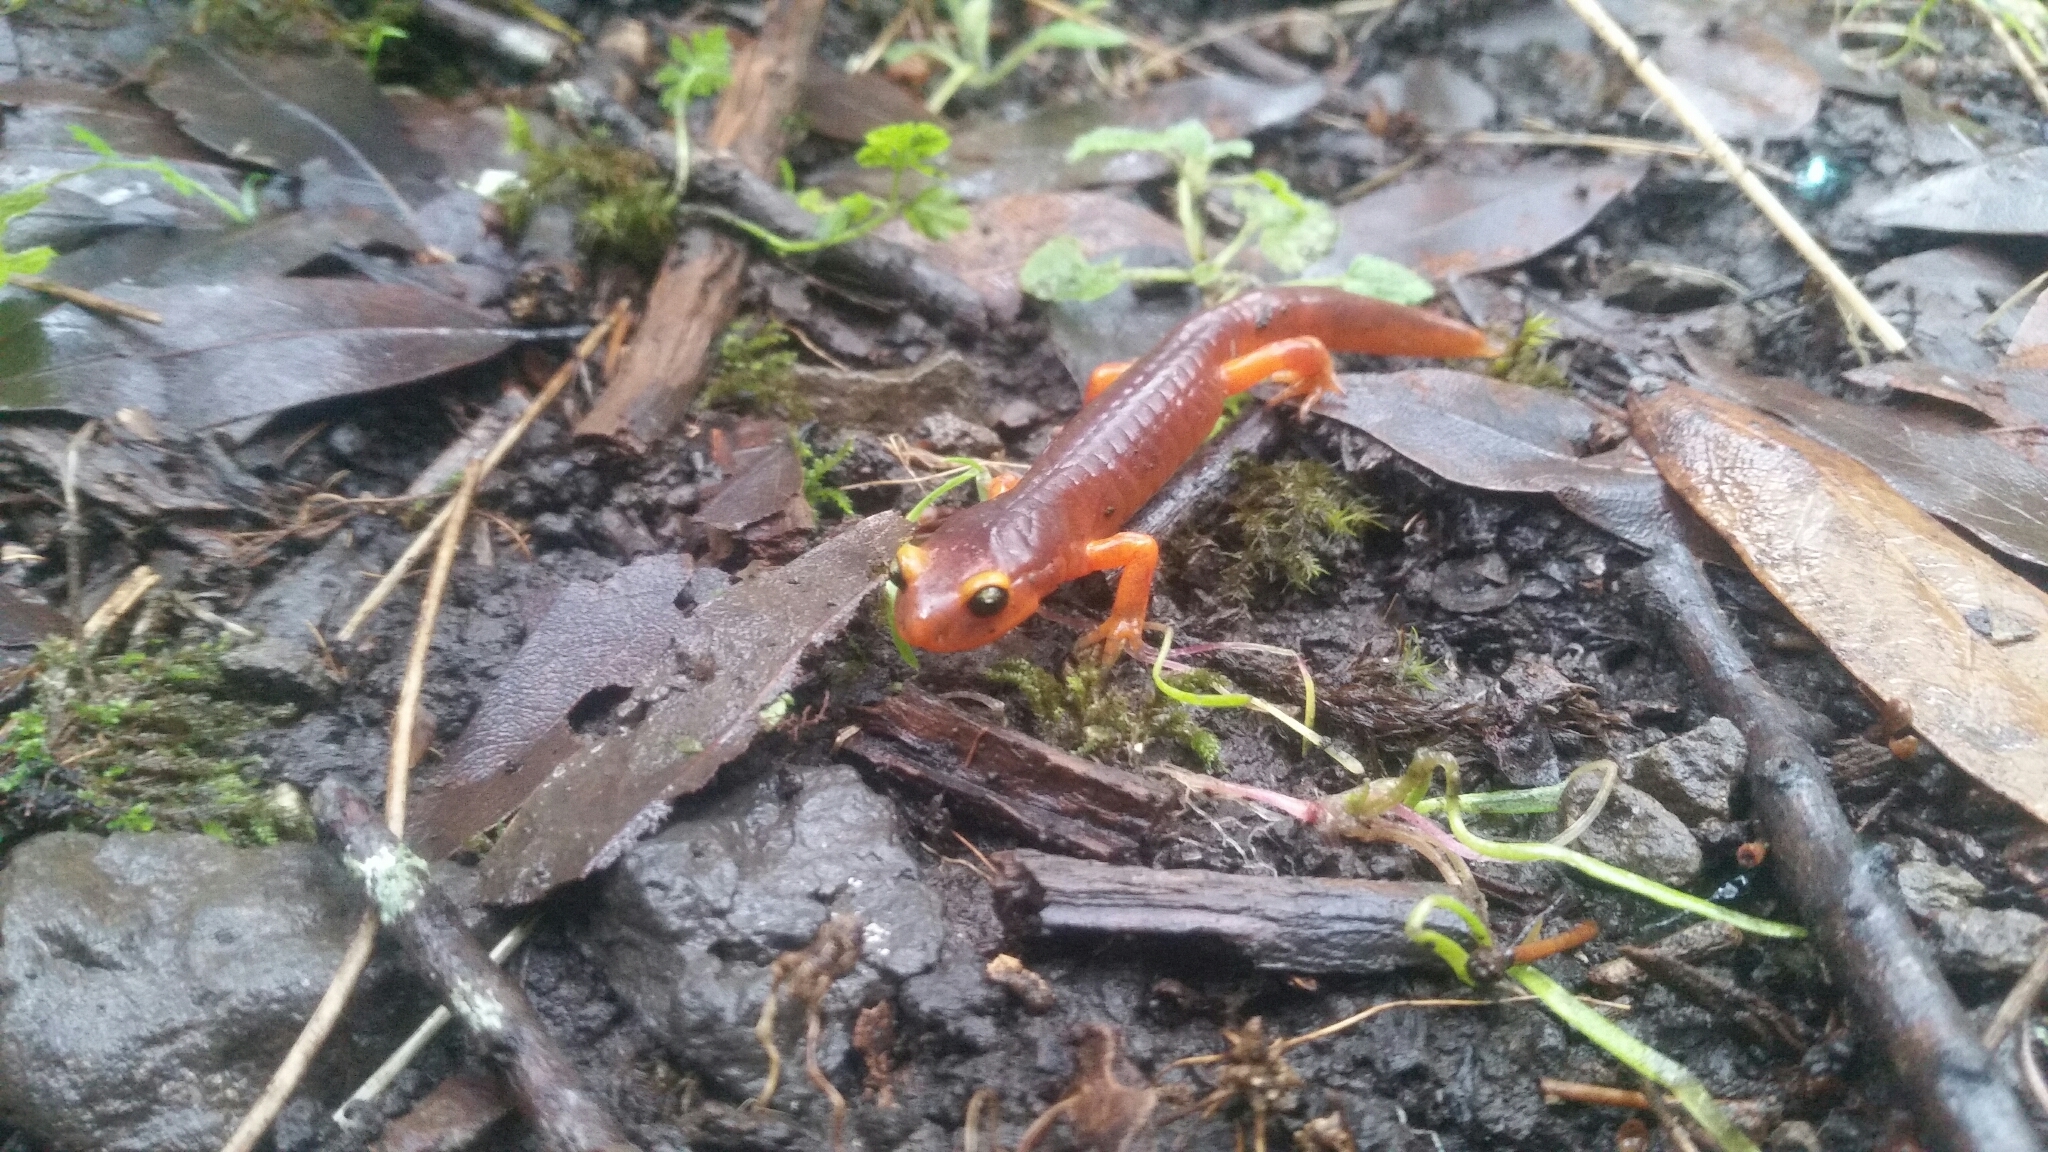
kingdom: Animalia
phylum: Chordata
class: Amphibia
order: Caudata
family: Plethodontidae
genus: Ensatina
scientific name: Ensatina eschscholtzii
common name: Ensatina
